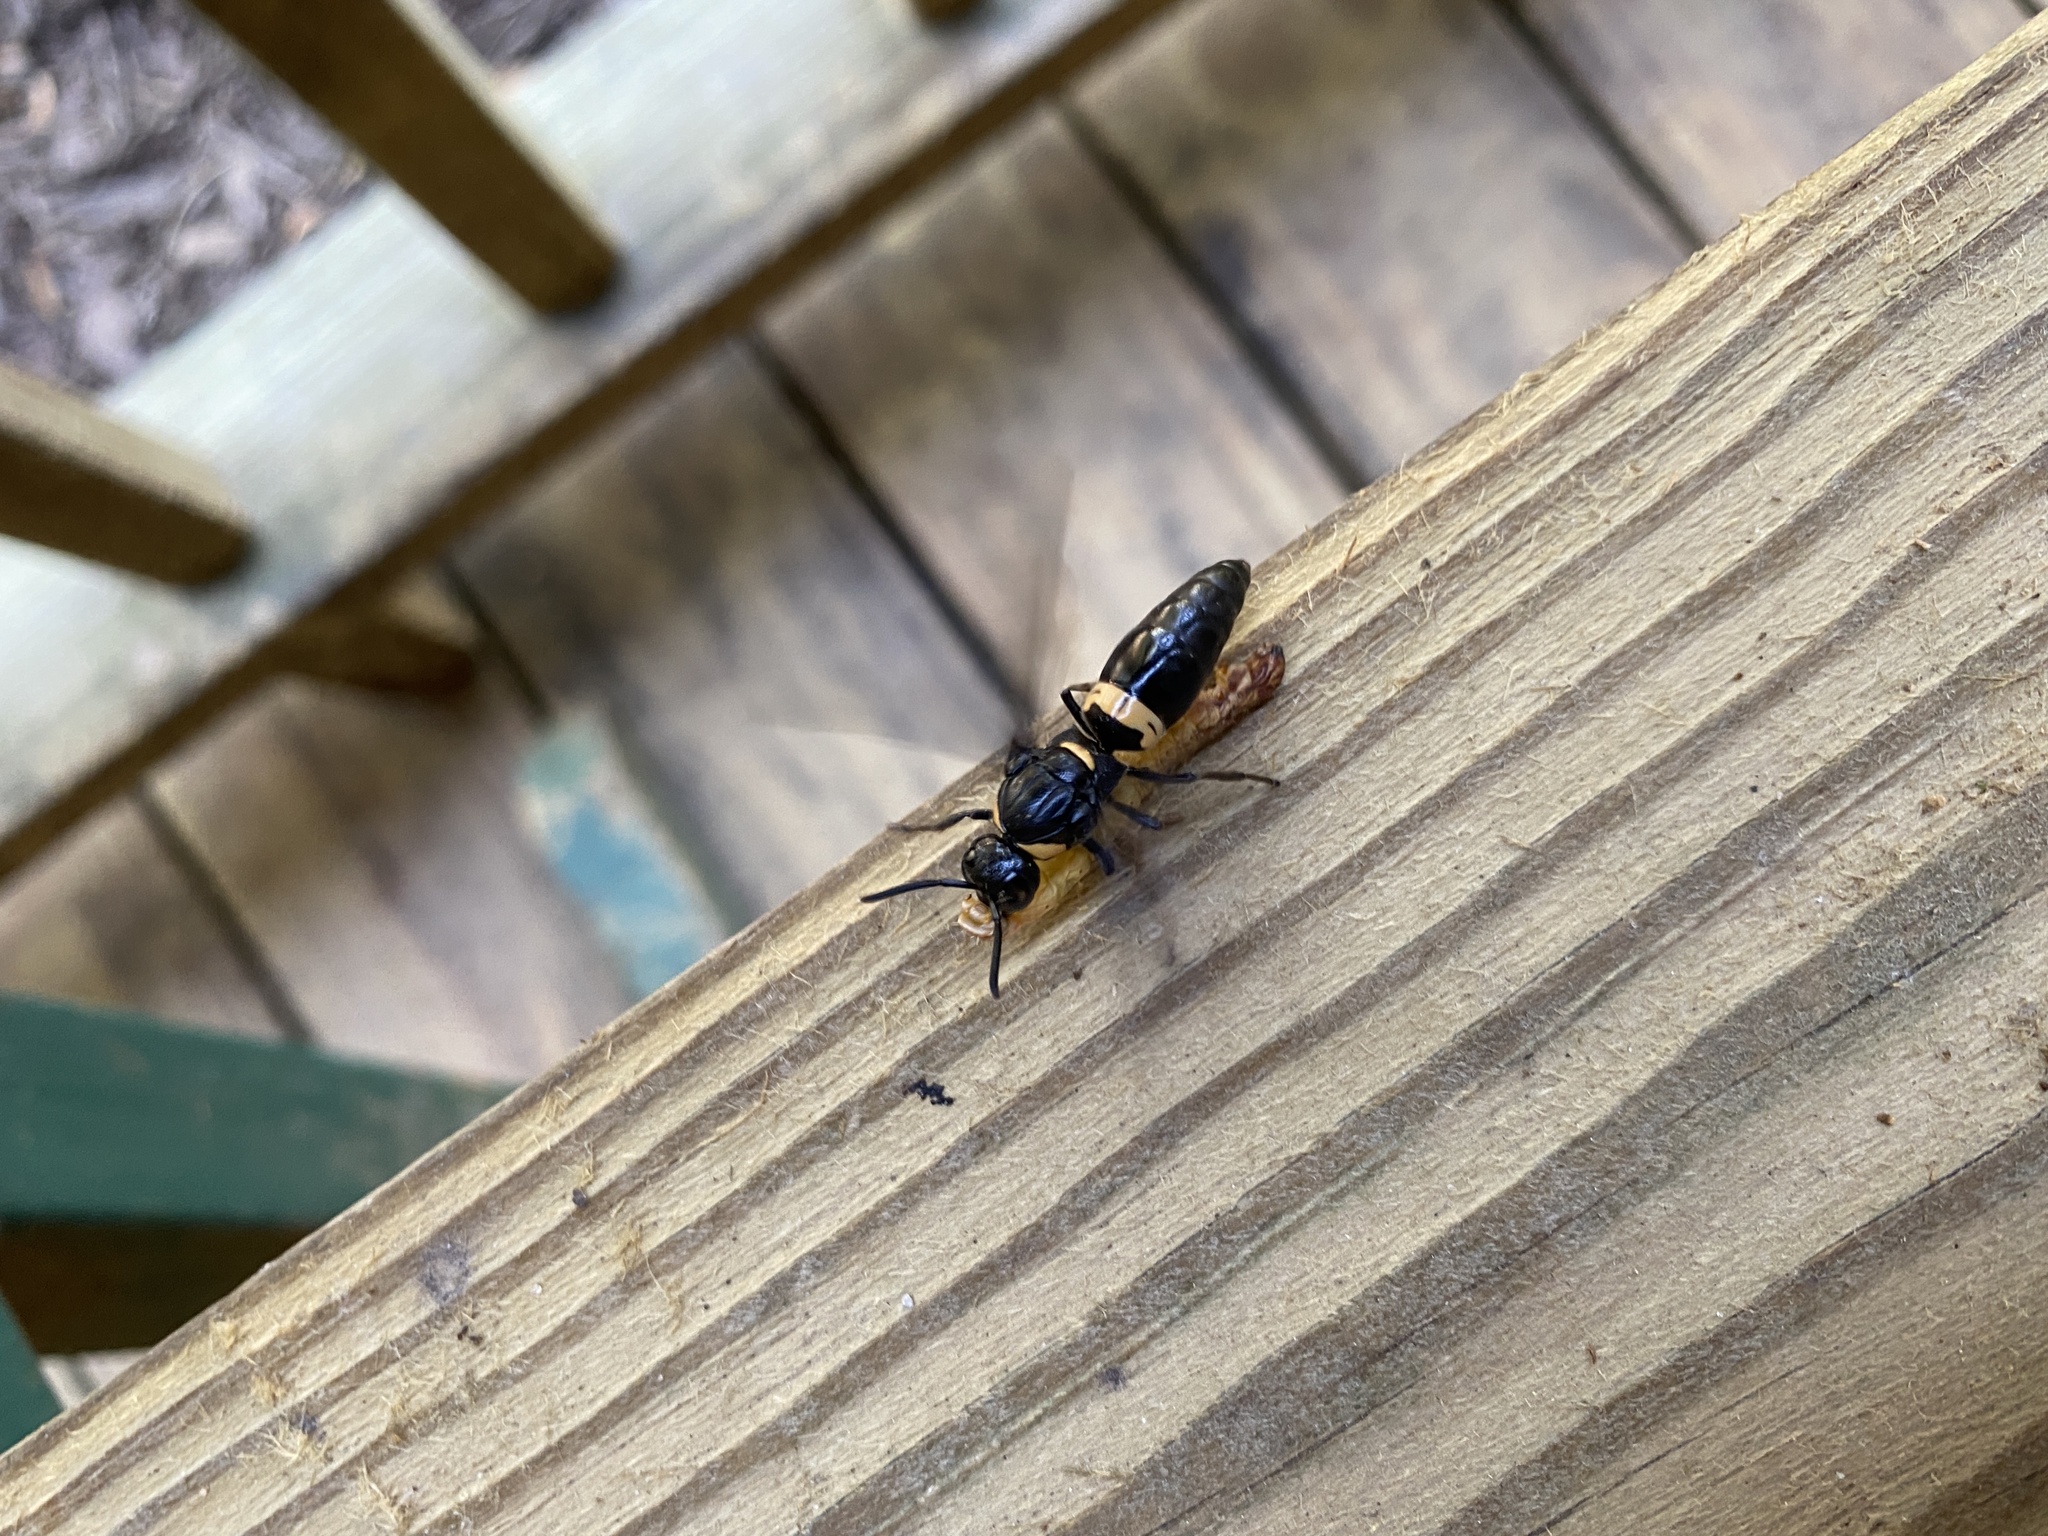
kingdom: Animalia
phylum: Arthropoda
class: Insecta
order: Hymenoptera
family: Eumenidae
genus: Monobia
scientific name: Monobia quadridens
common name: Four-toothed mason wasp
